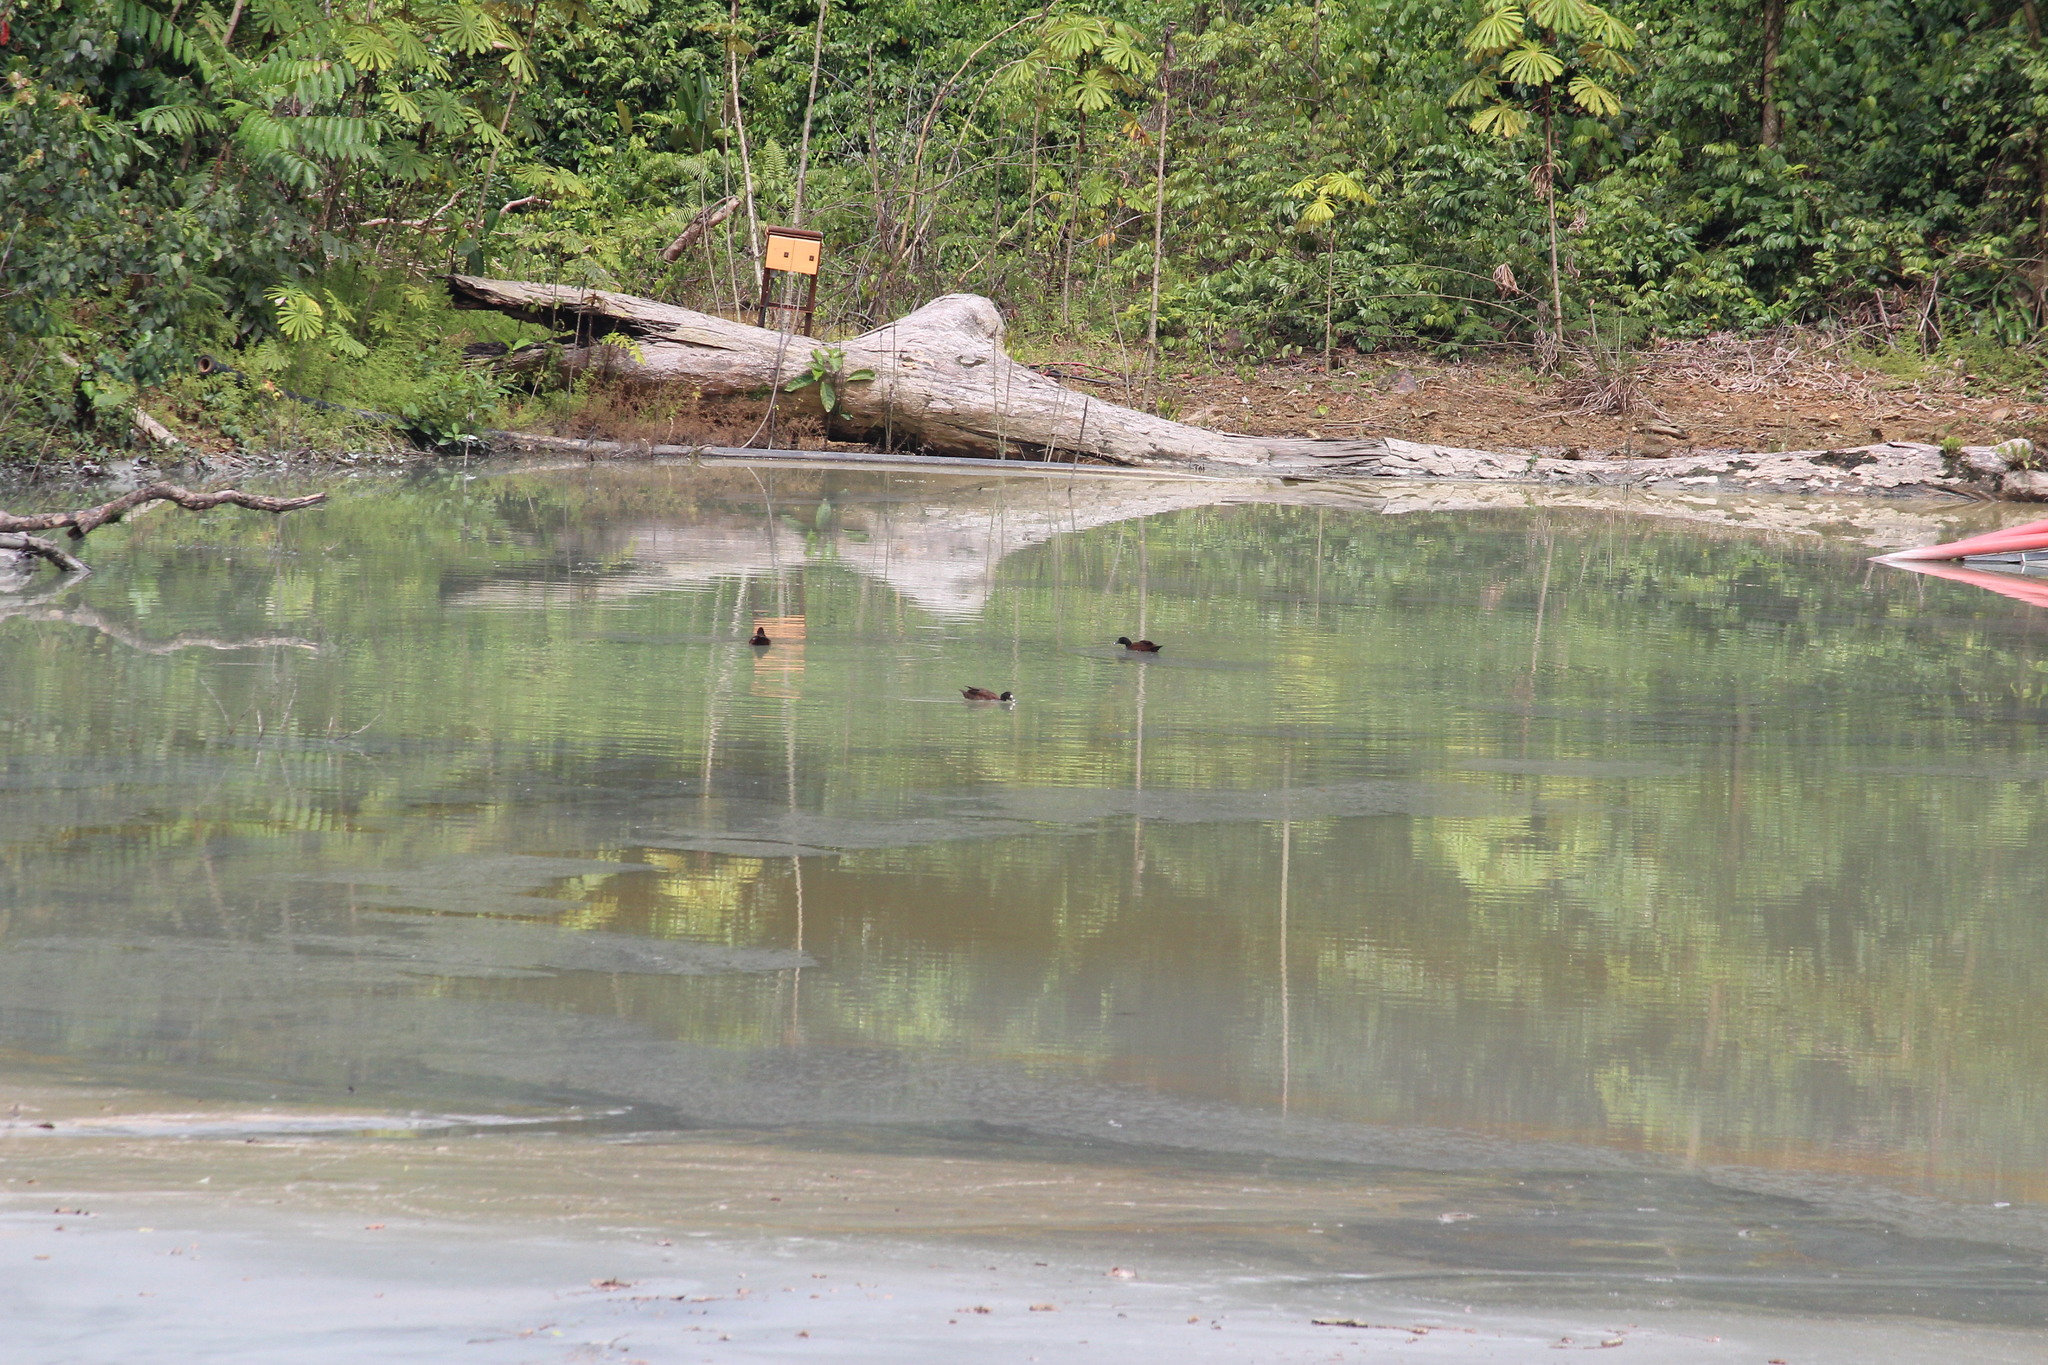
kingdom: Animalia
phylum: Chordata
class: Aves
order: Anseriformes
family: Anatidae
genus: Pteronetta
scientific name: Pteronetta hartlaubii
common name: Hartlaub's duck
